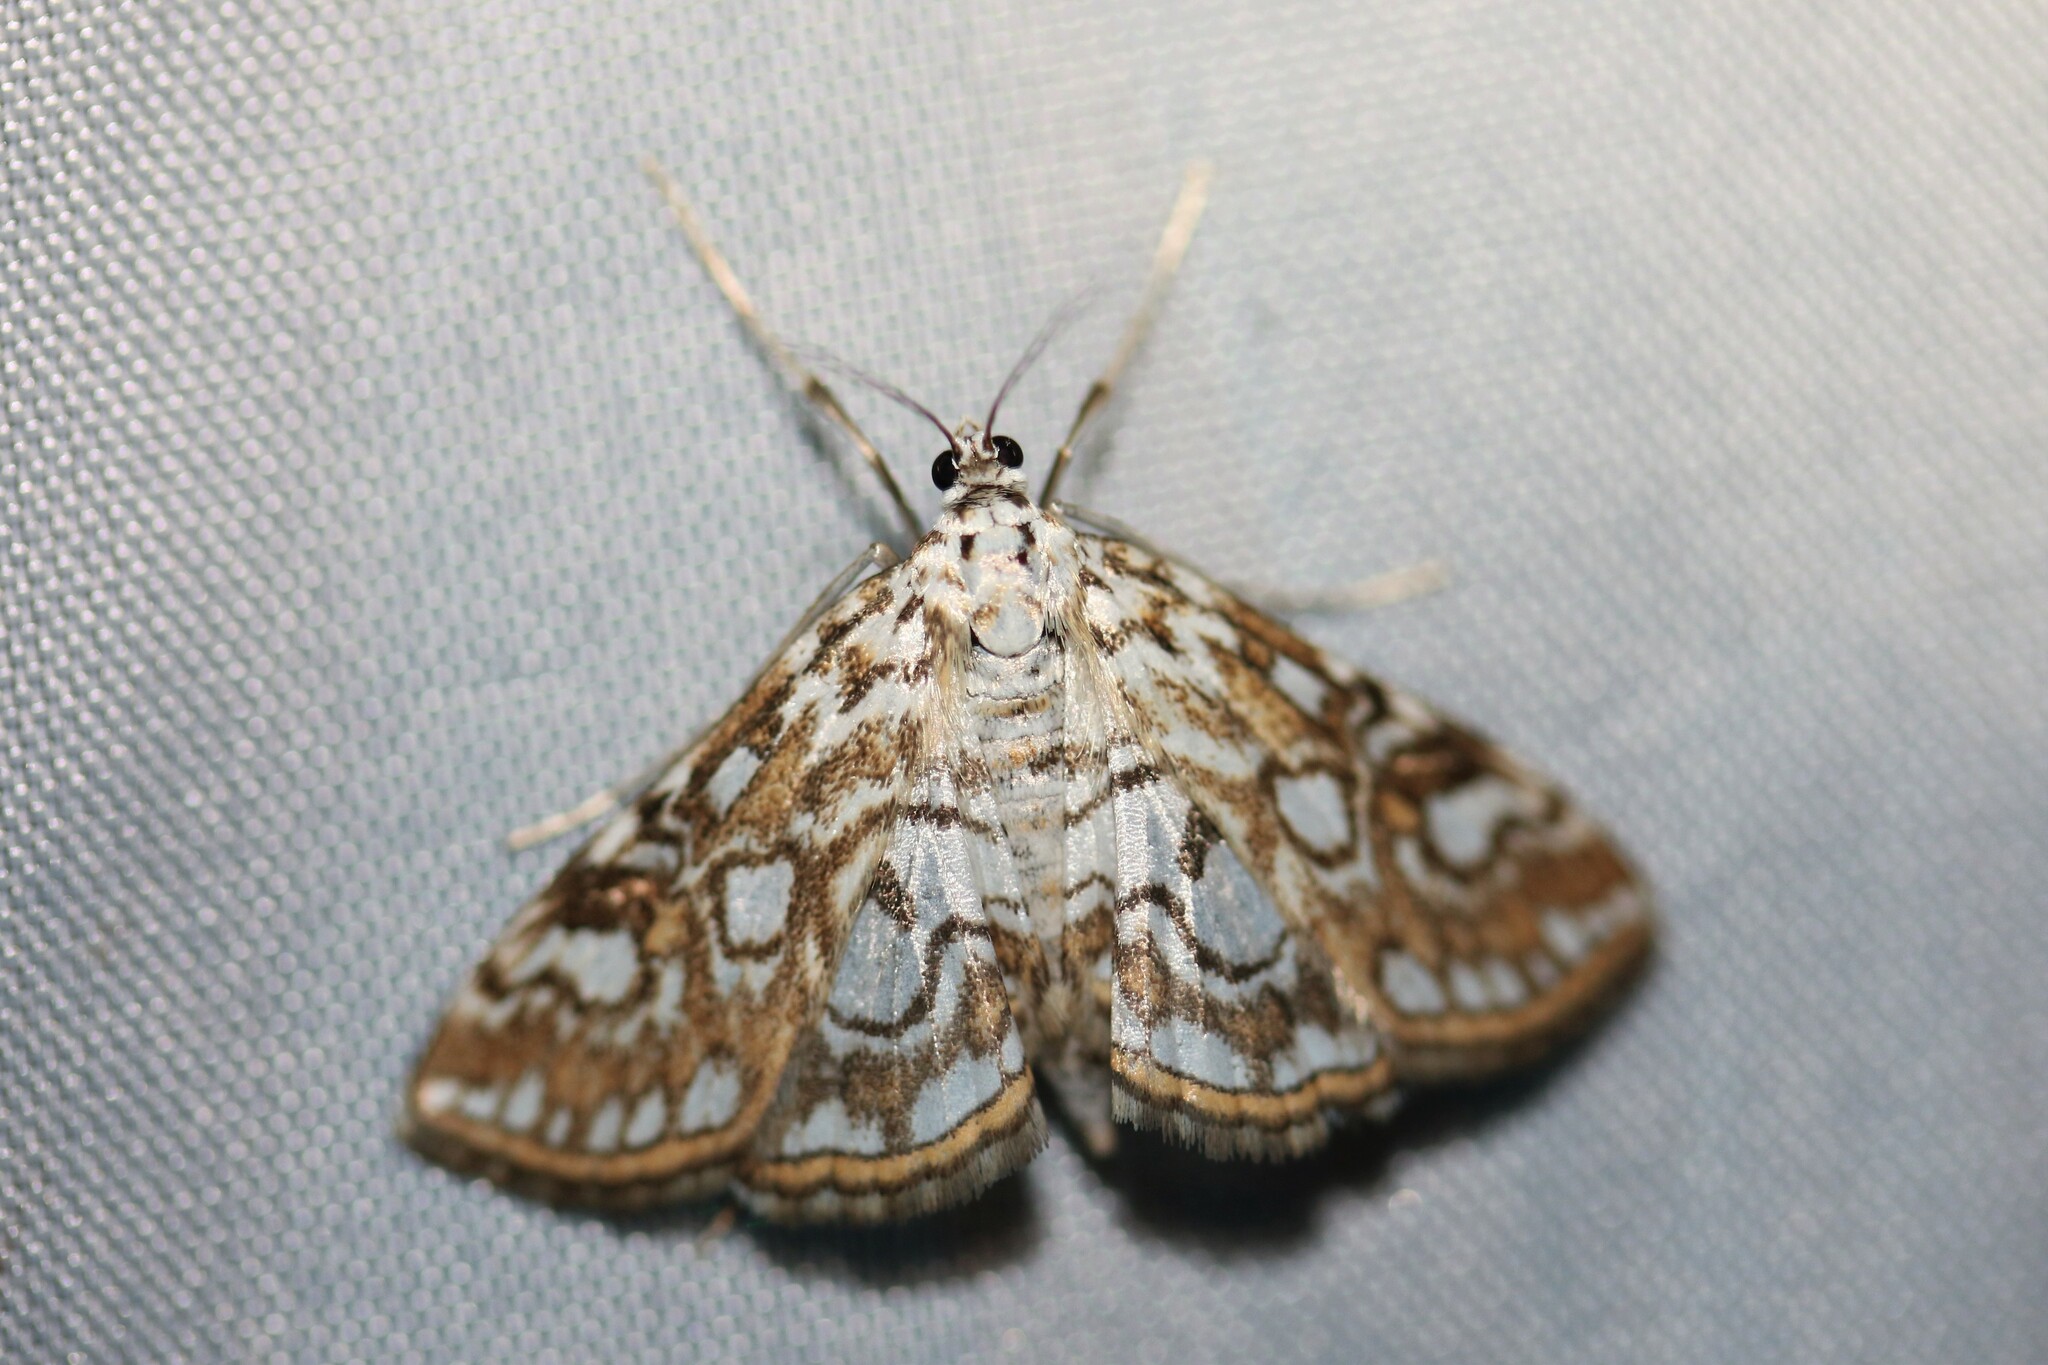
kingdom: Animalia
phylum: Arthropoda
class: Insecta
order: Lepidoptera
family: Crambidae
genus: Elophila
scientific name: Elophila nymphaeata
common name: Brown china-mark
